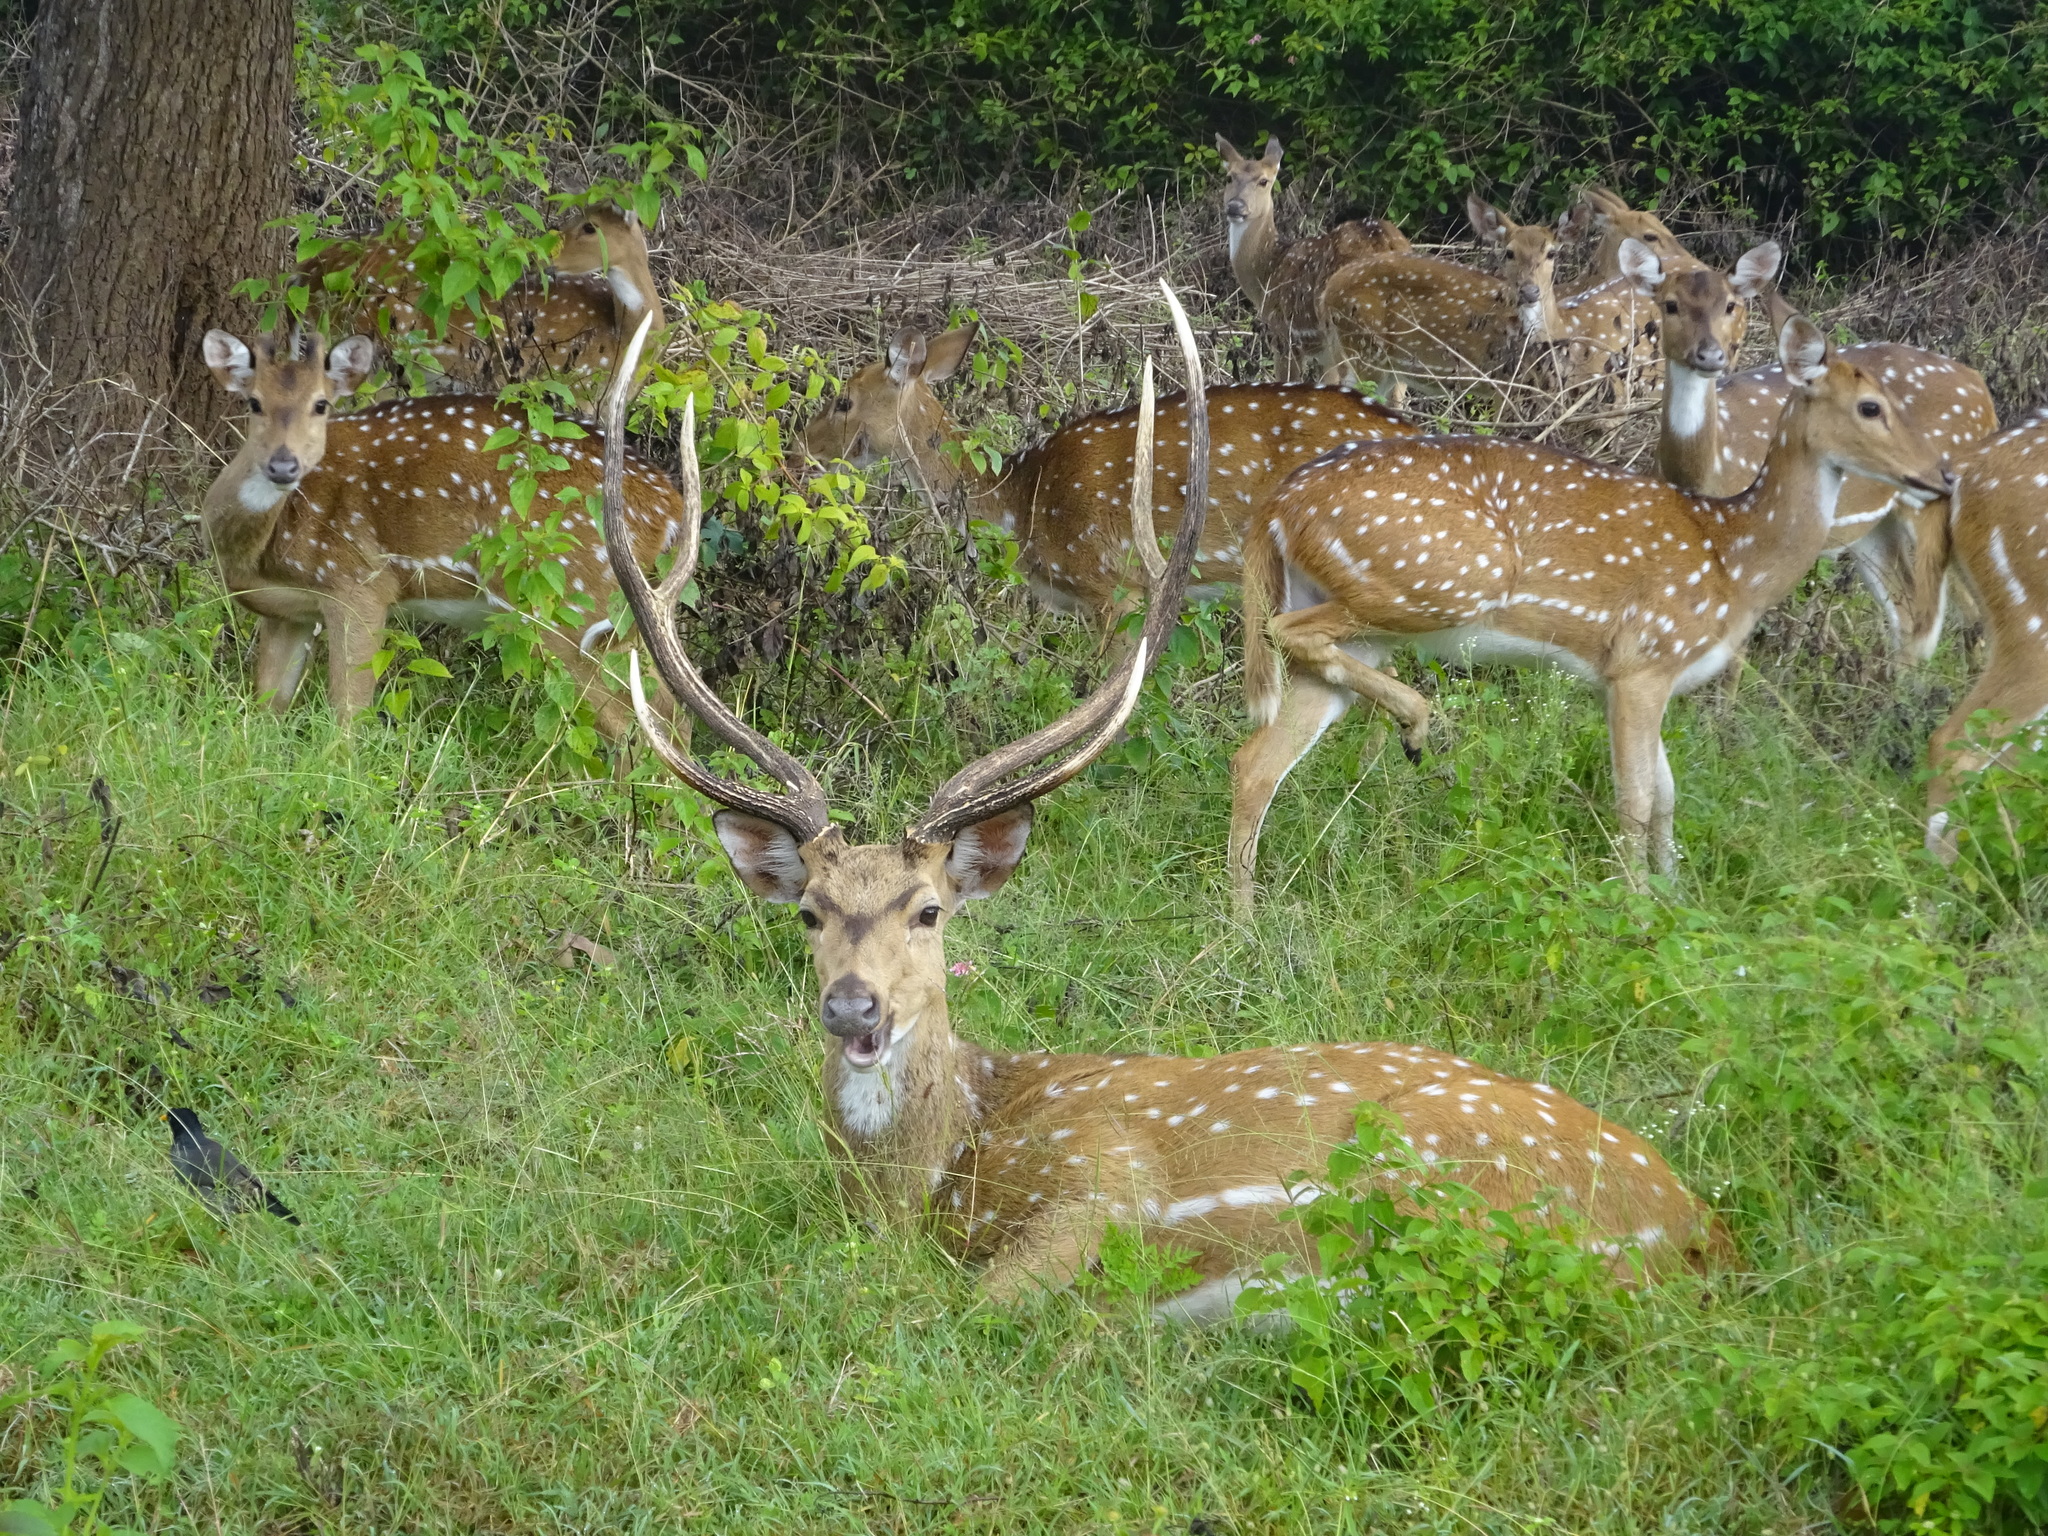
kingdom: Animalia
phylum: Chordata
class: Mammalia
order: Artiodactyla
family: Cervidae
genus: Axis
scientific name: Axis axis
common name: Chital
